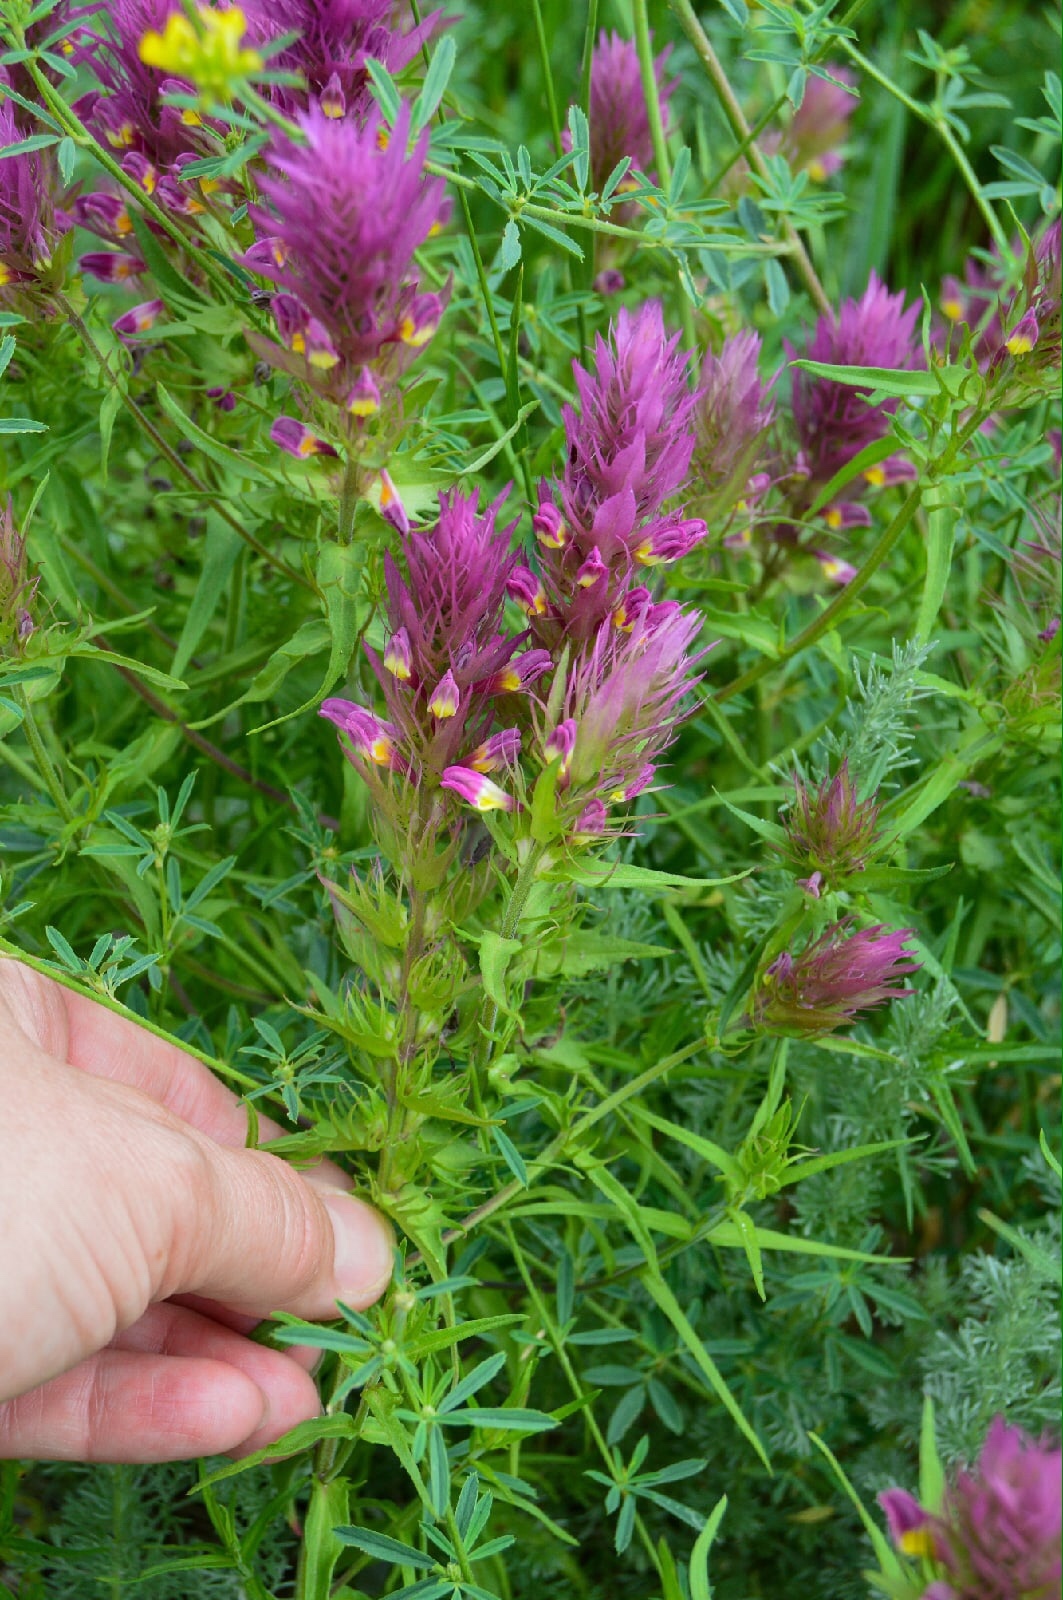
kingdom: Plantae
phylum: Tracheophyta
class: Magnoliopsida
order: Lamiales
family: Orobanchaceae
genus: Melampyrum
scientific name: Melampyrum arvense
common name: Field cow-wheat
